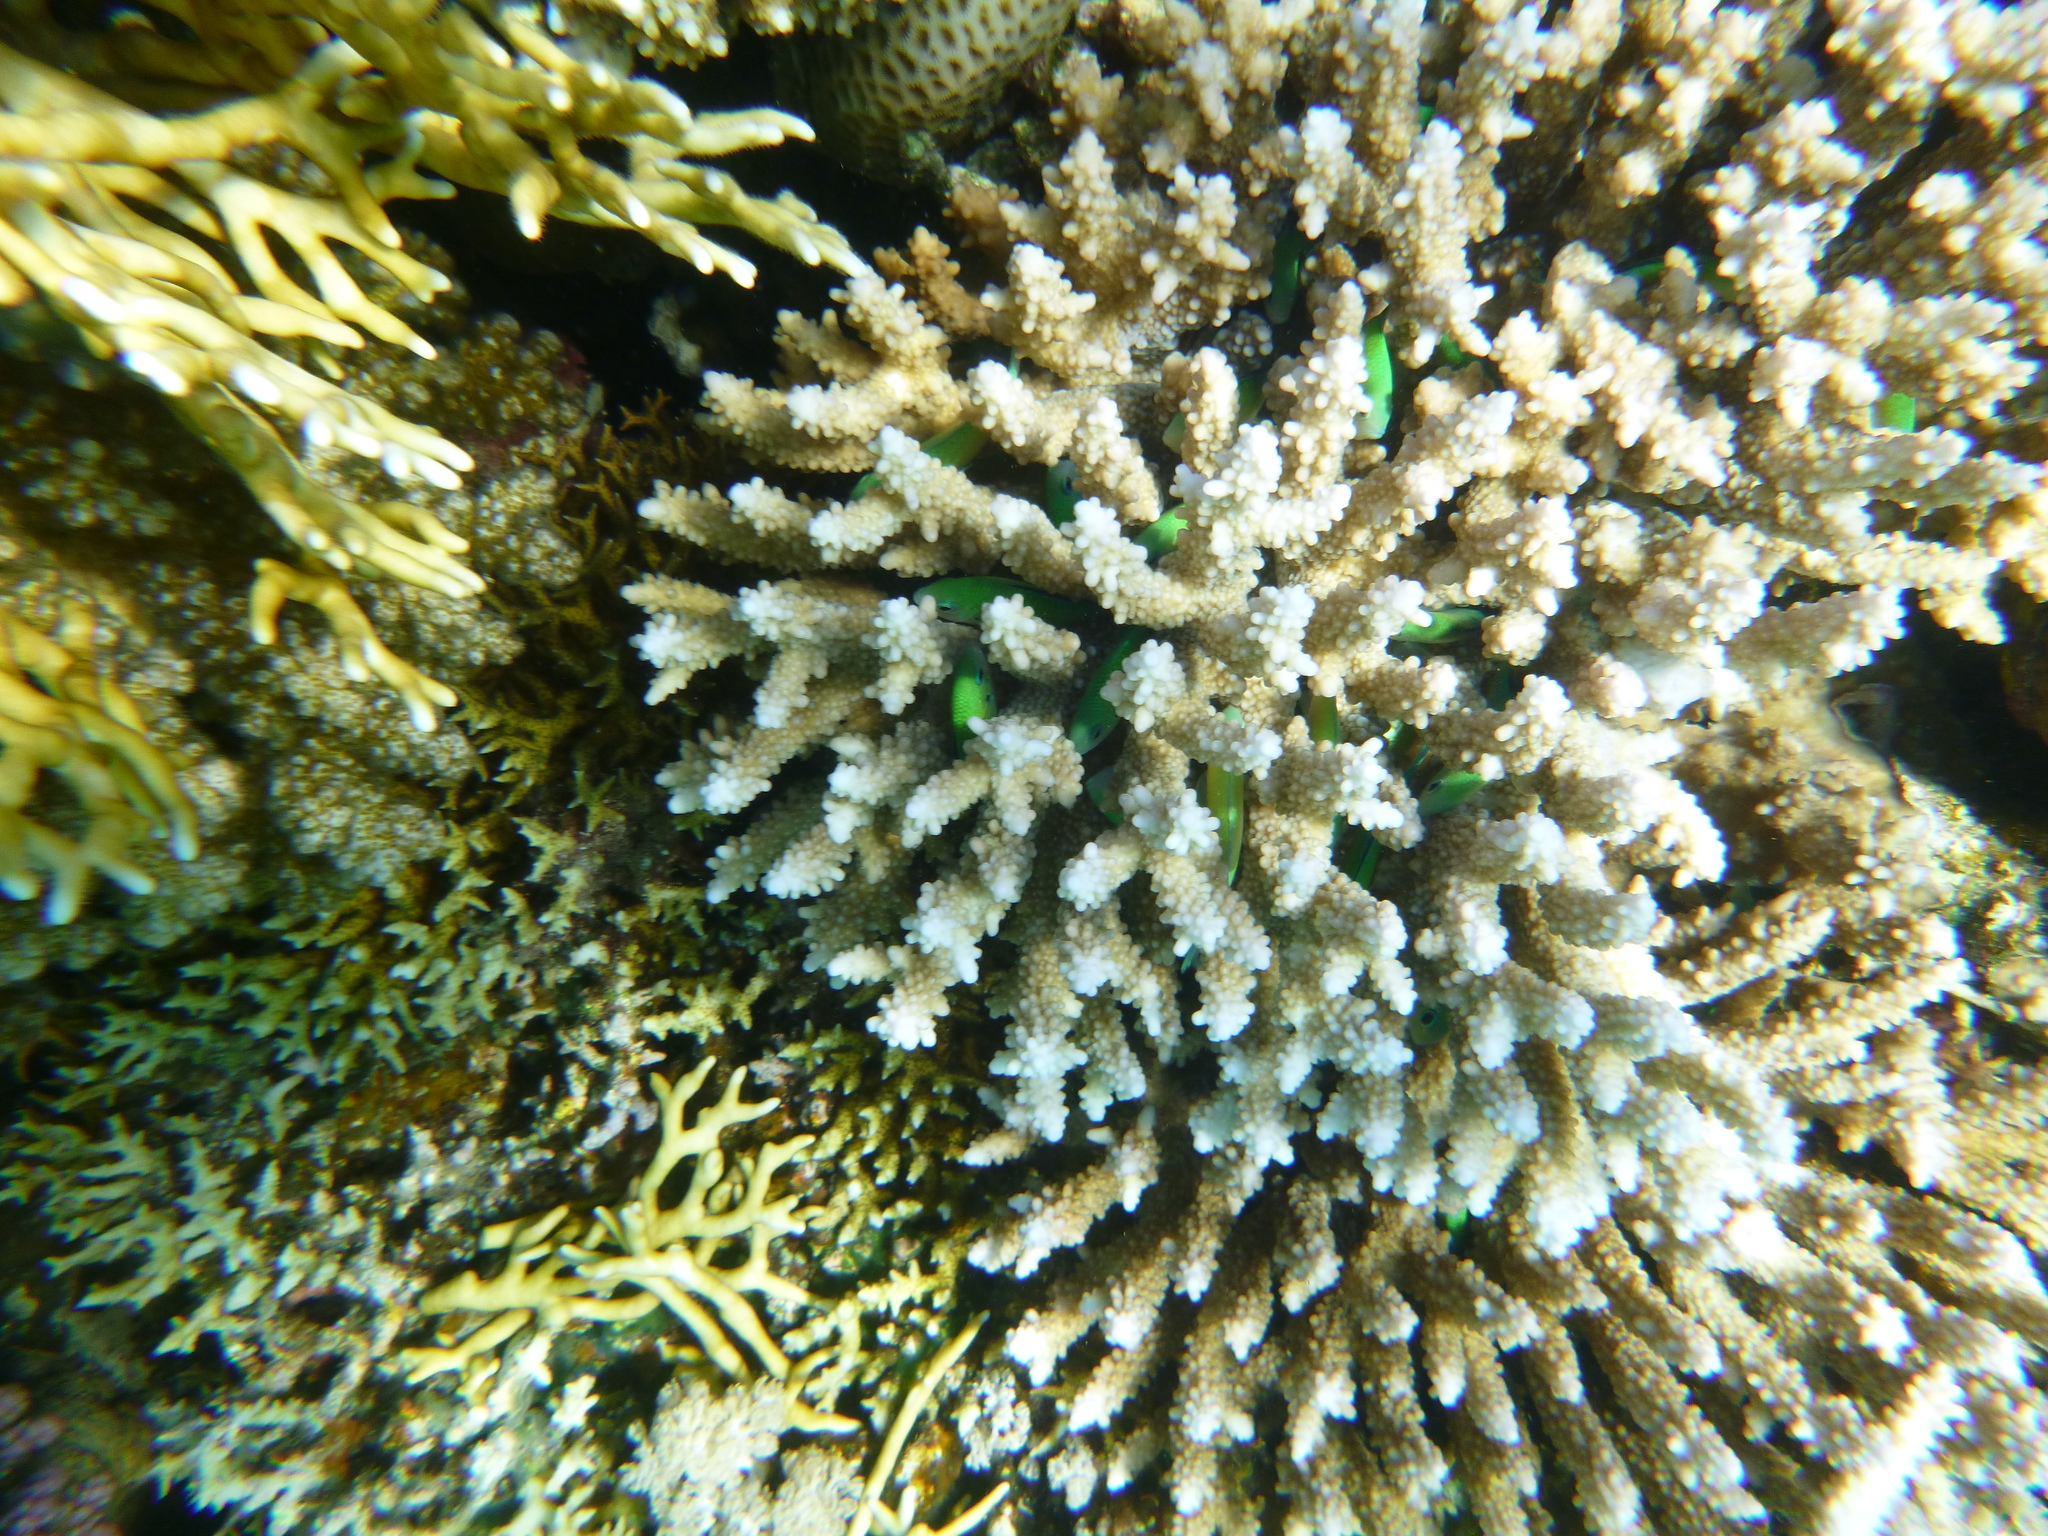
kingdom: Animalia
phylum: Chordata
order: Perciformes
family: Pomacentridae
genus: Chromis
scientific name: Chromis viridis
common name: Blue-green chromis
